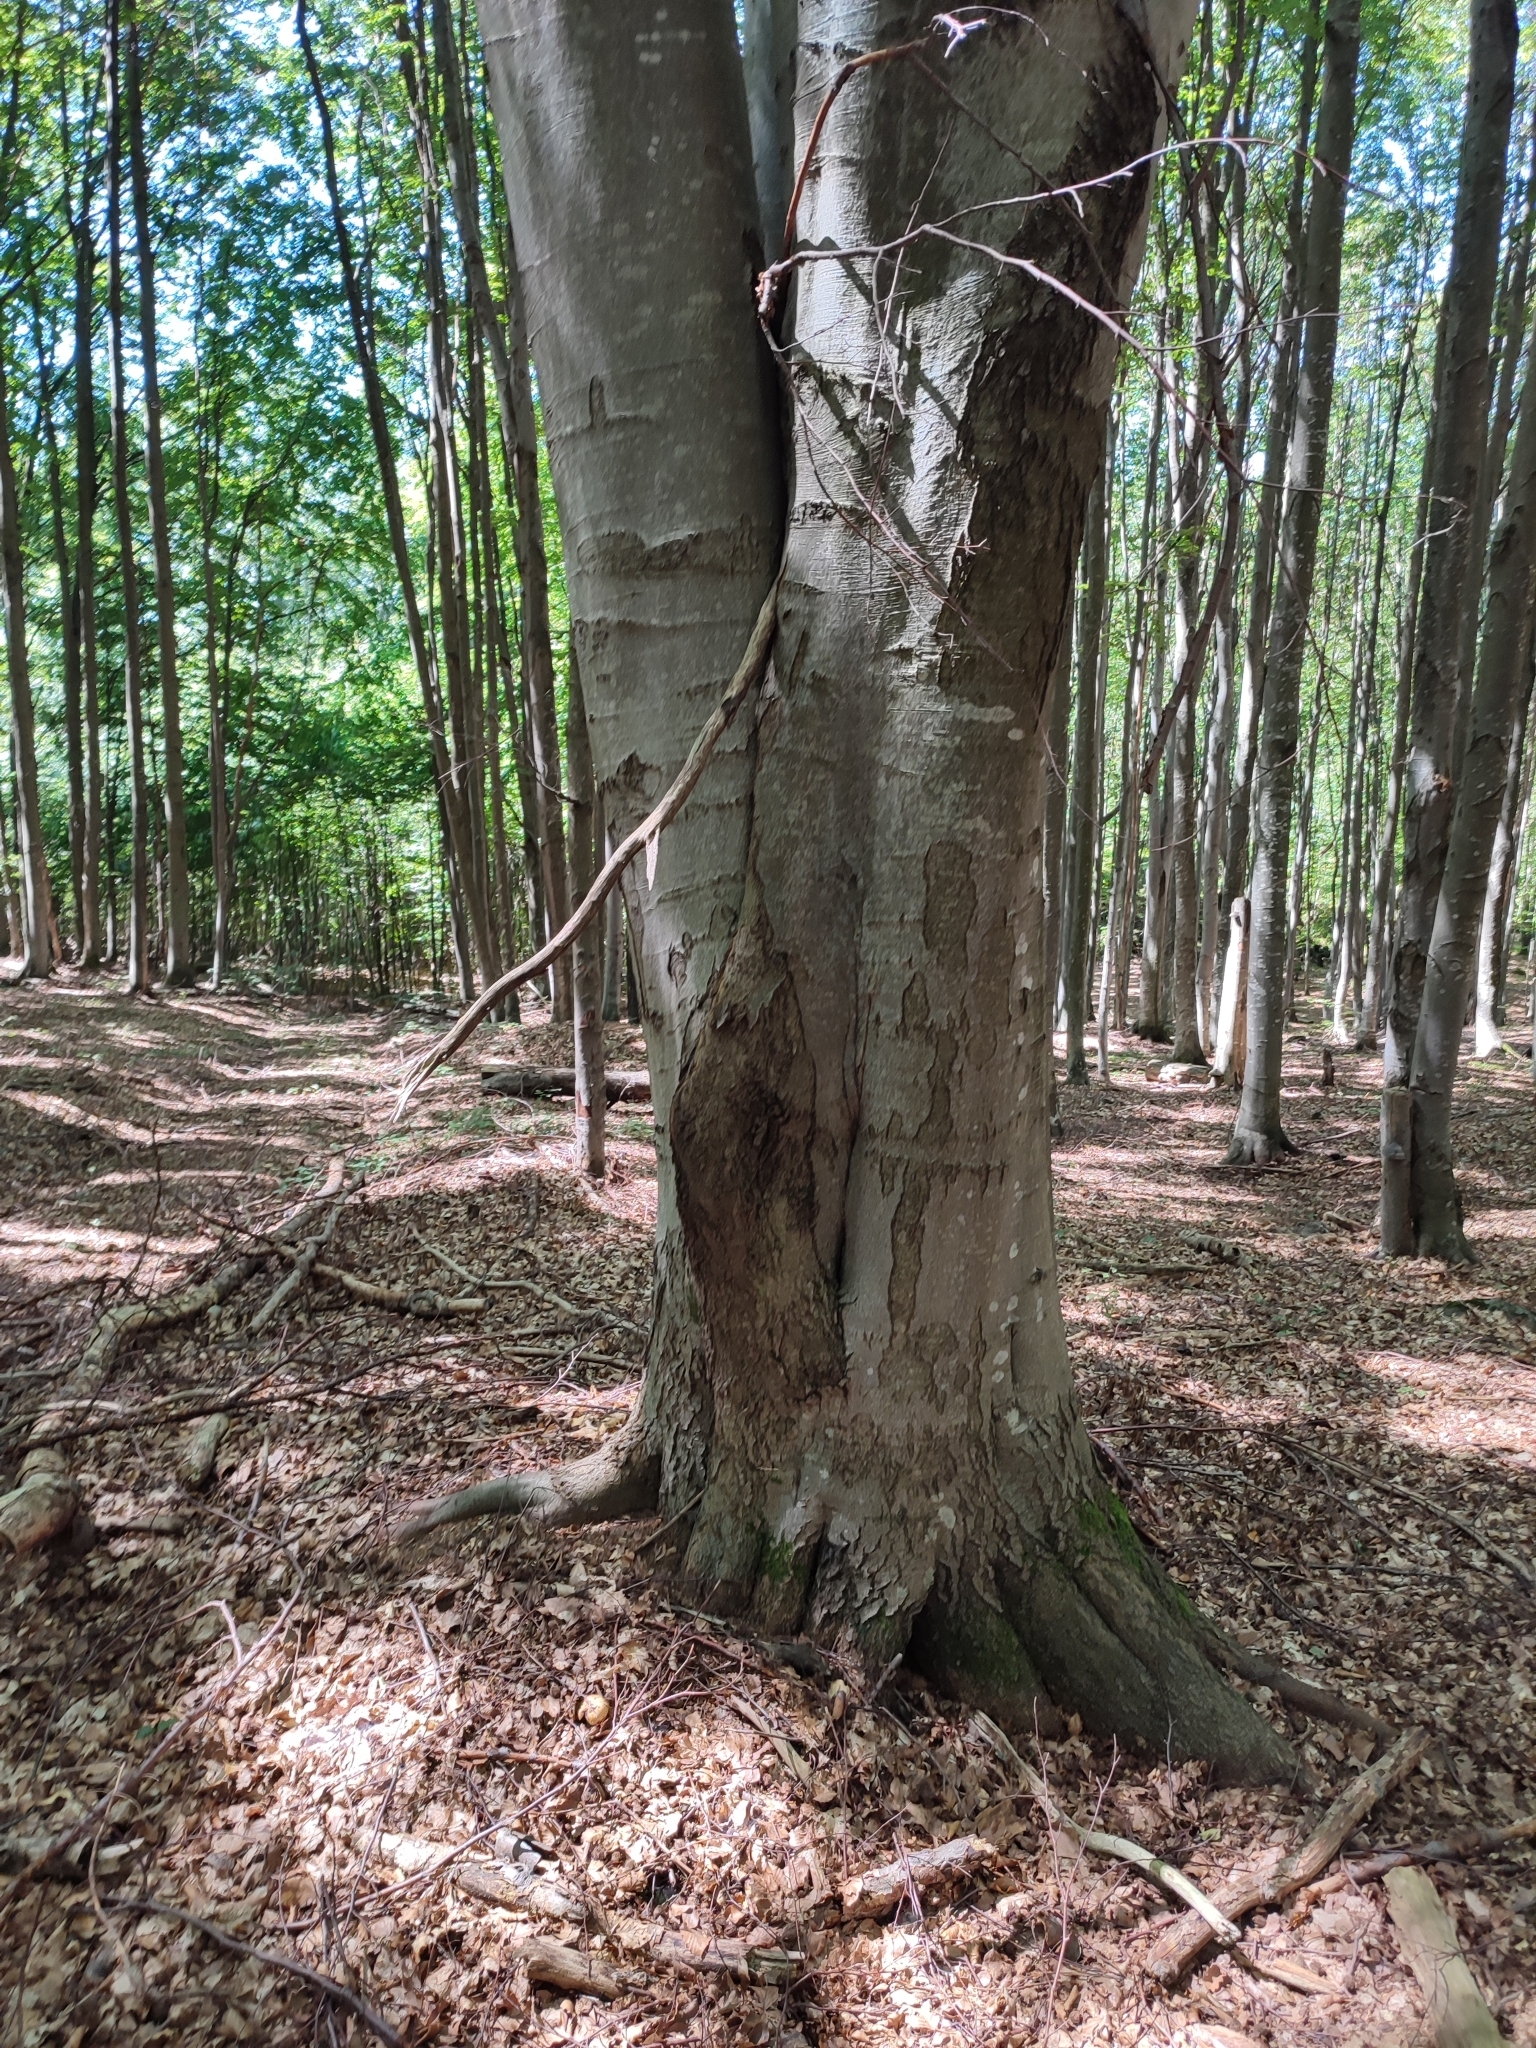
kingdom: Plantae
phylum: Tracheophyta
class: Magnoliopsida
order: Fagales
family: Fagaceae
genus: Fagus
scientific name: Fagus sylvatica
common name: Beech
